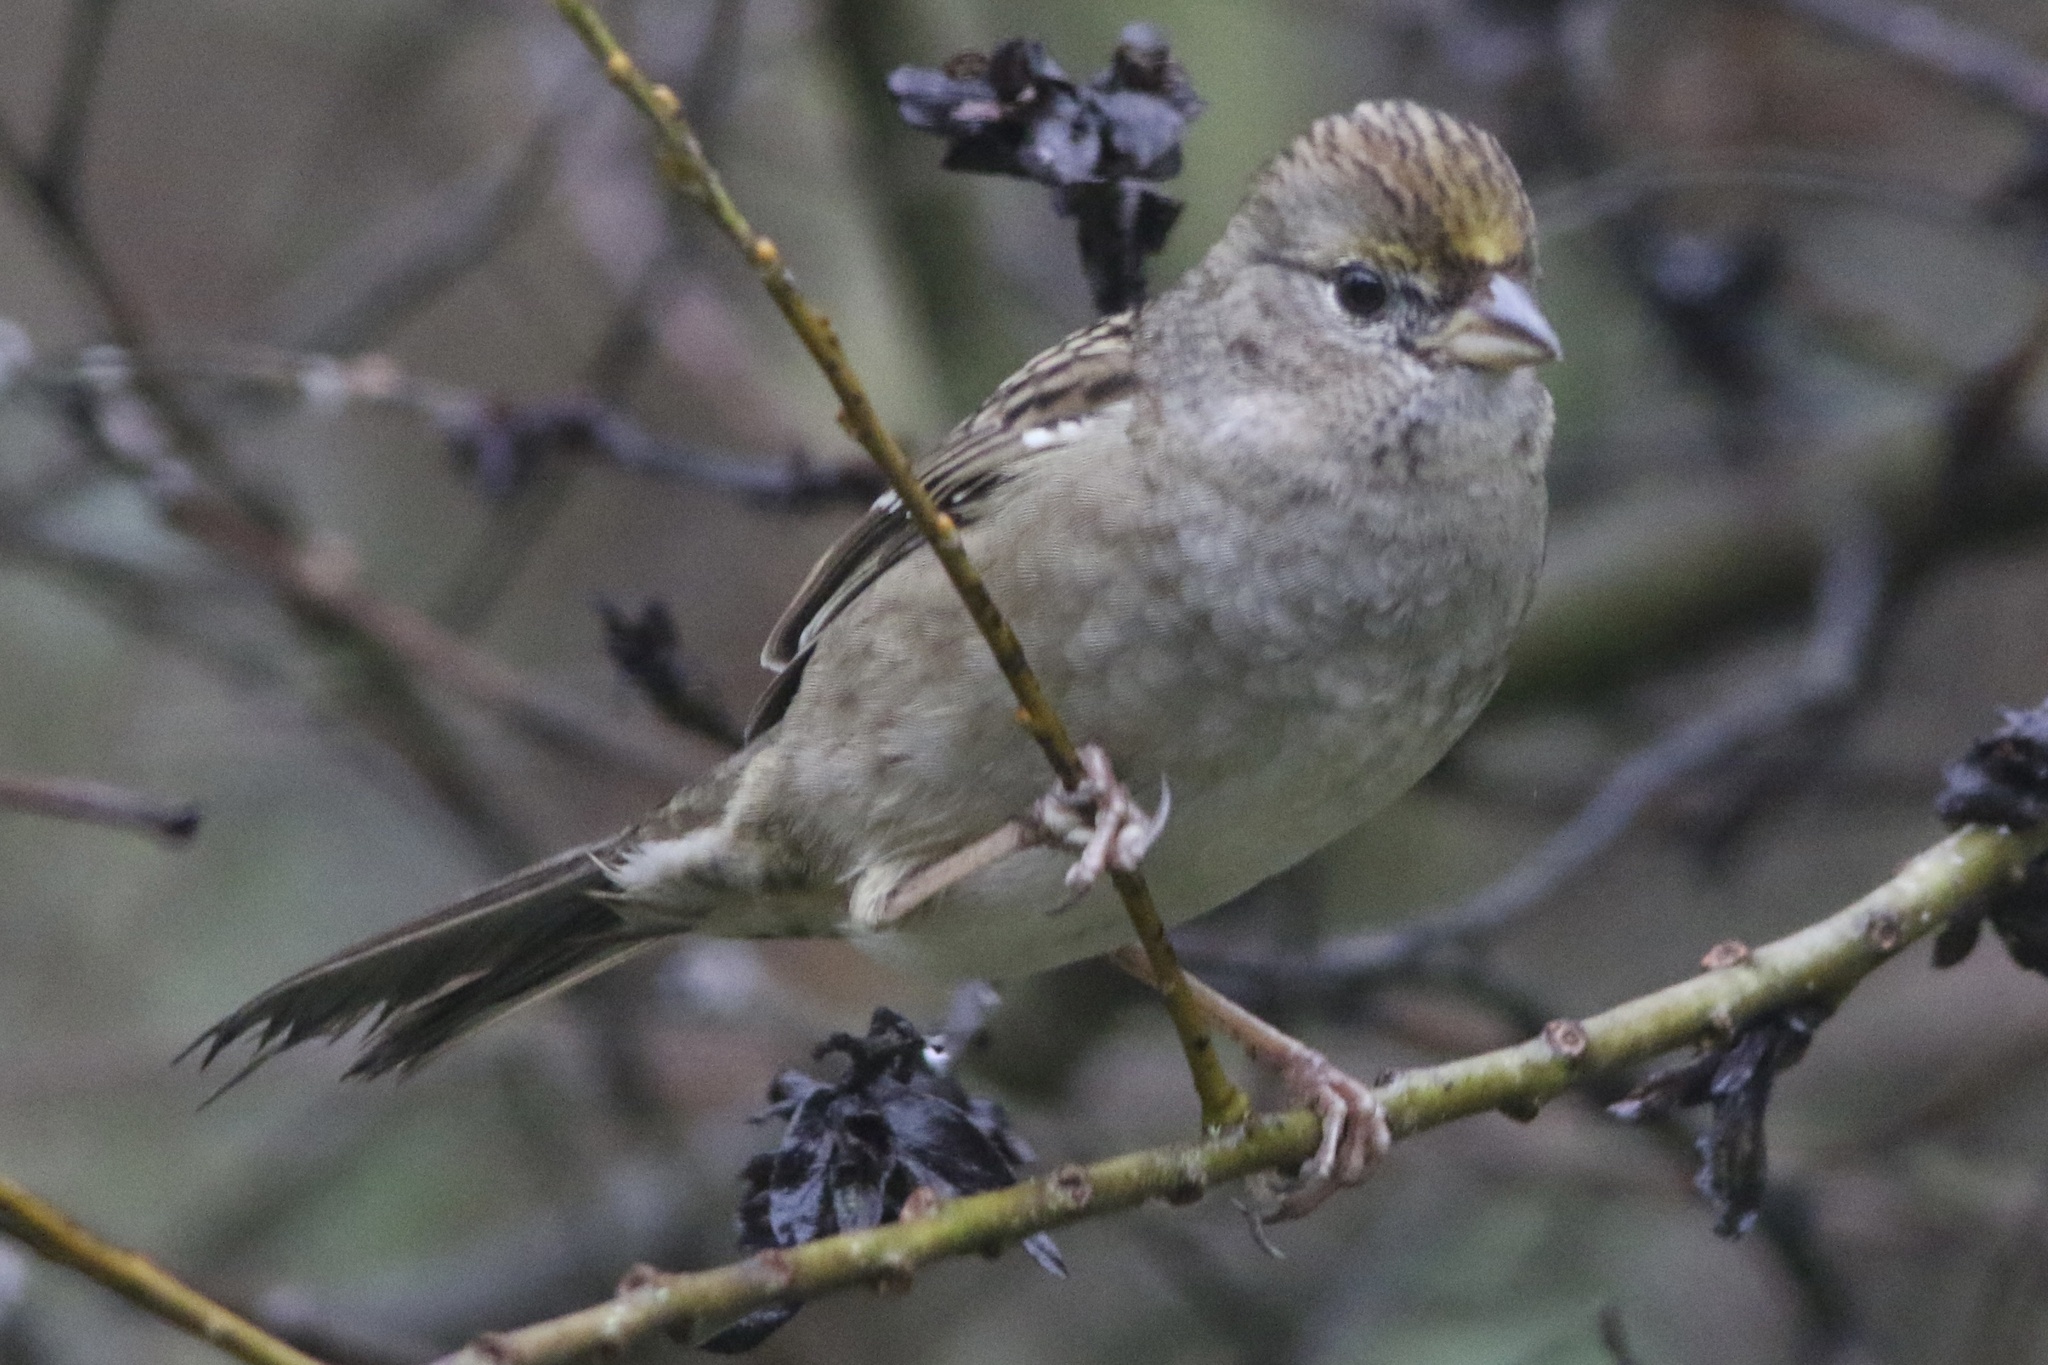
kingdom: Animalia
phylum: Chordata
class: Aves
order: Passeriformes
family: Passerellidae
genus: Zonotrichia
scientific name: Zonotrichia atricapilla
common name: Golden-crowned sparrow
